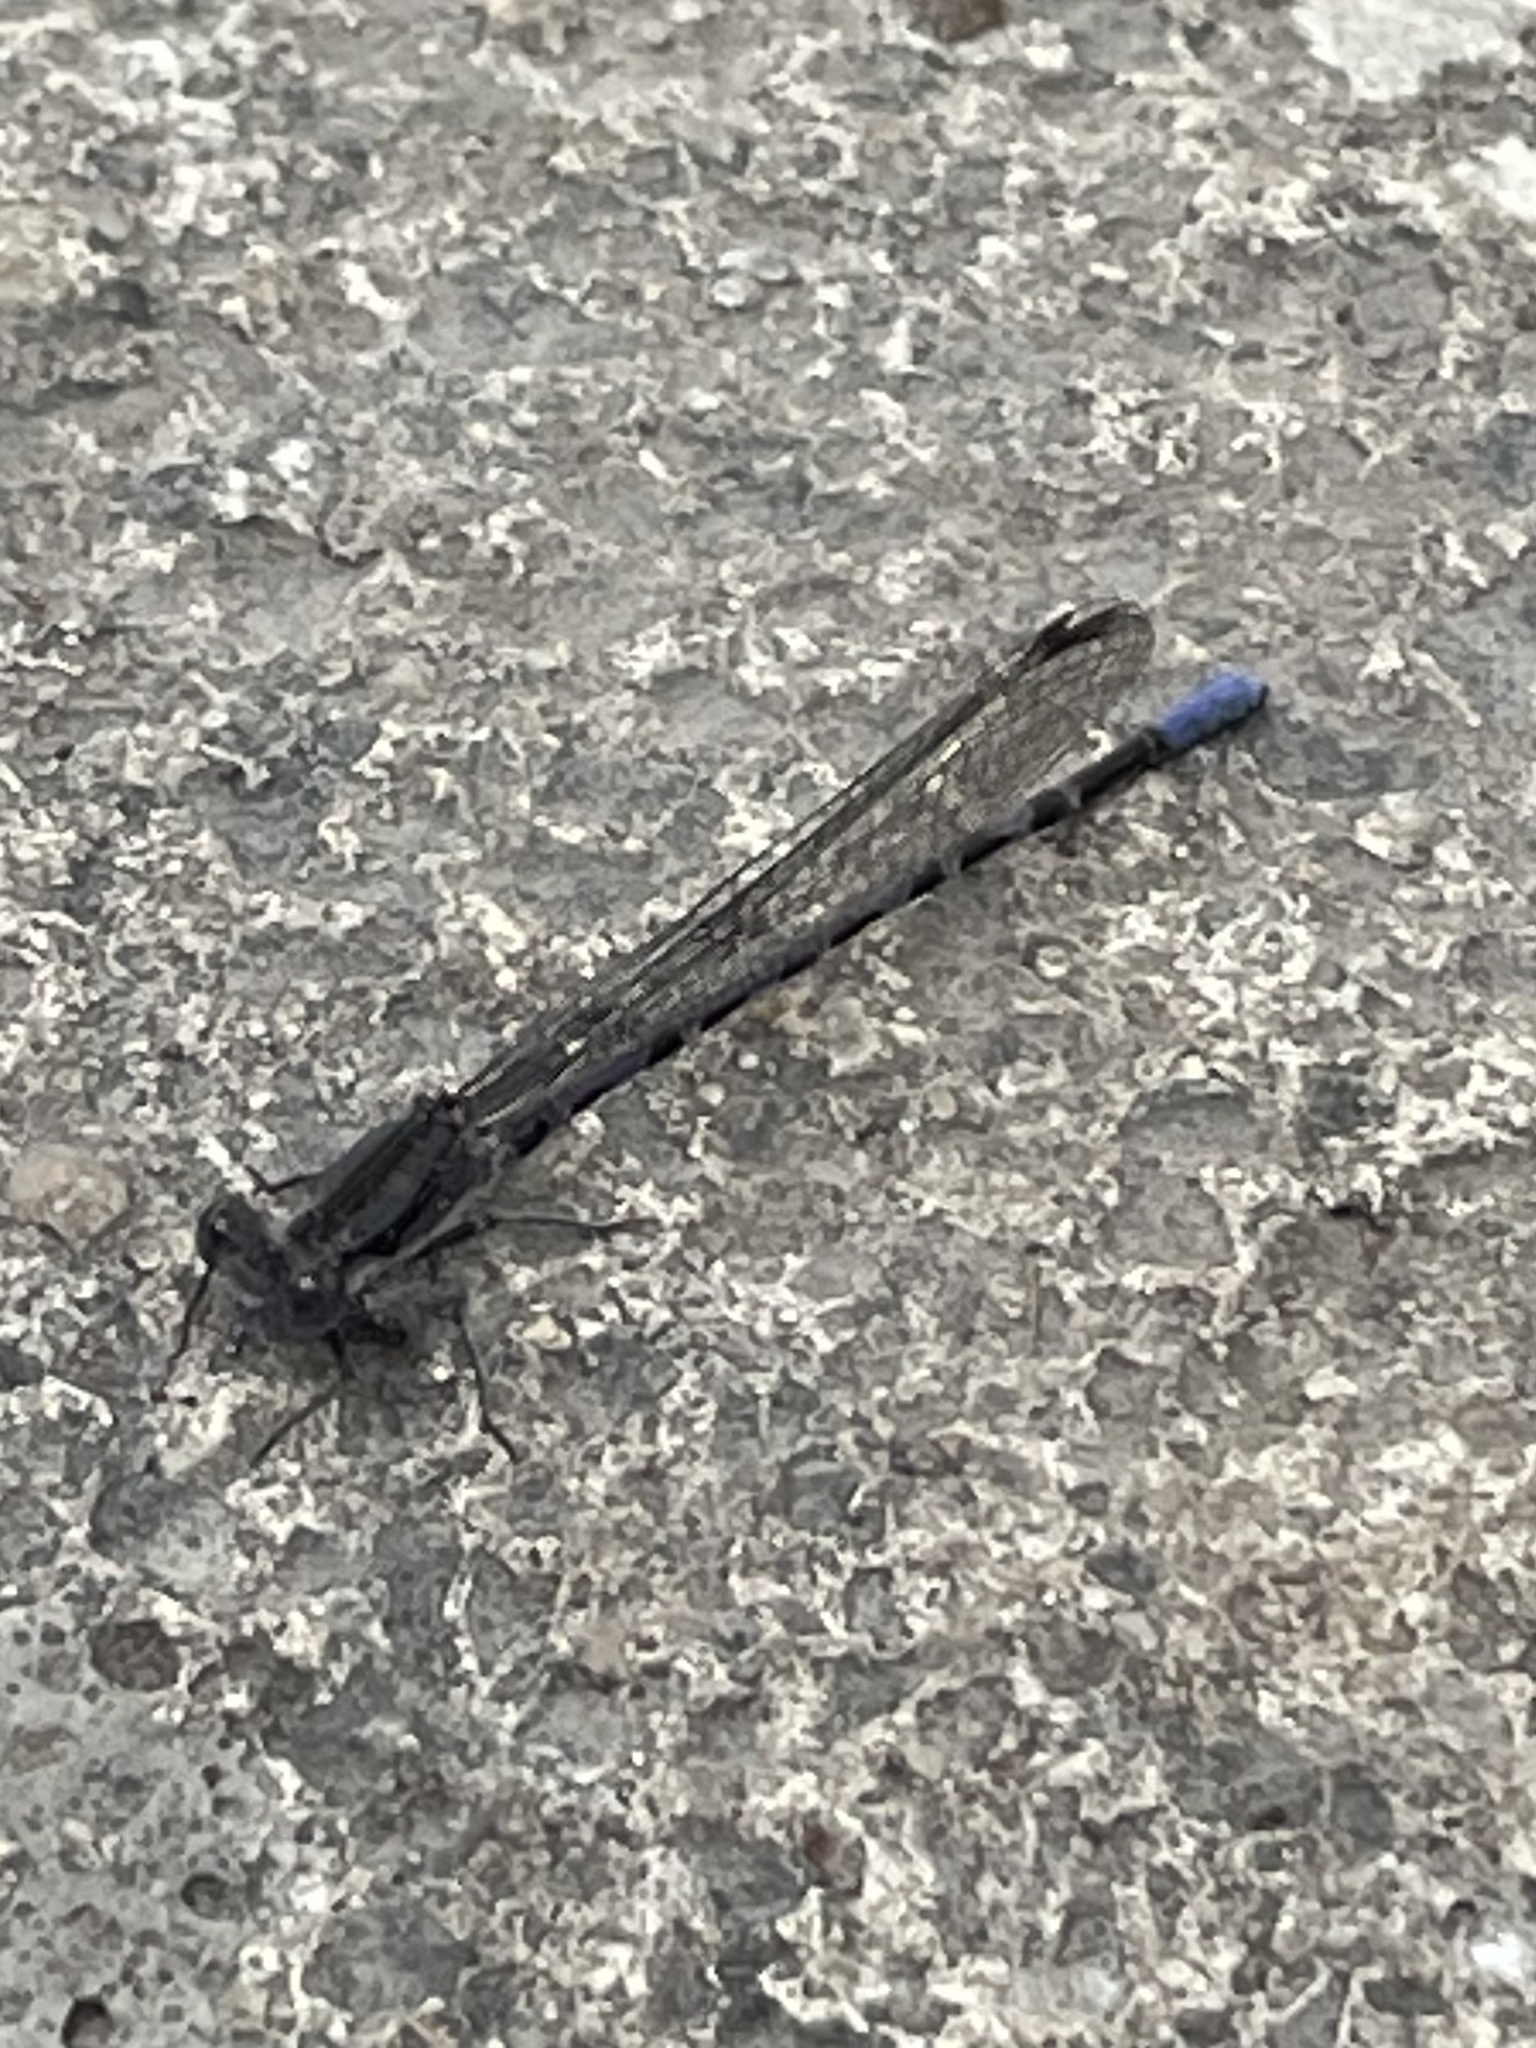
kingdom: Animalia
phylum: Arthropoda
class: Insecta
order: Odonata
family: Coenagrionidae
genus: Argia
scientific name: Argia immunda
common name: Kiowa dancer
